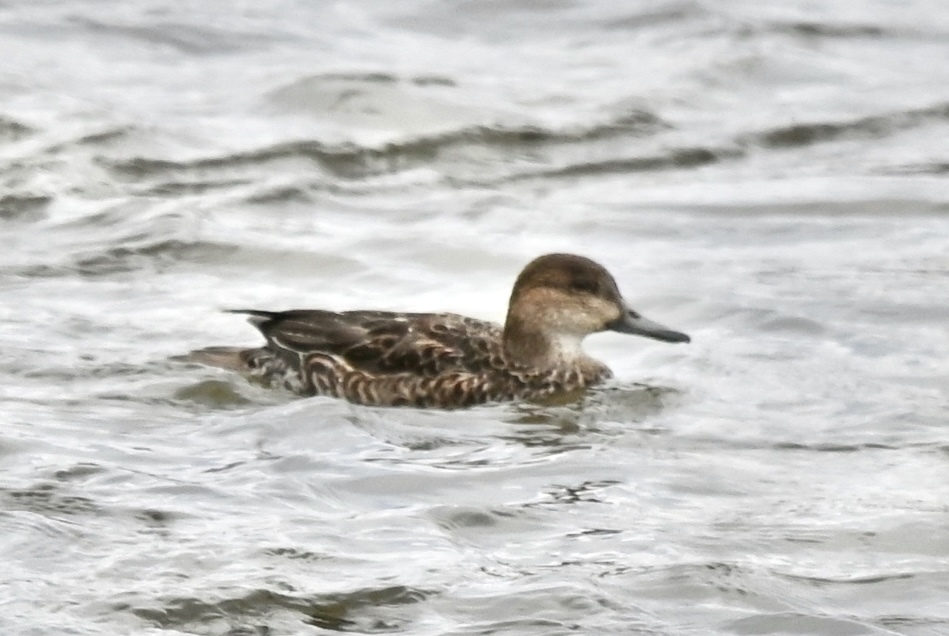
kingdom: Animalia
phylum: Chordata
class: Aves
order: Anseriformes
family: Anatidae
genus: Anas
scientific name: Anas crecca
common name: Eurasian teal
